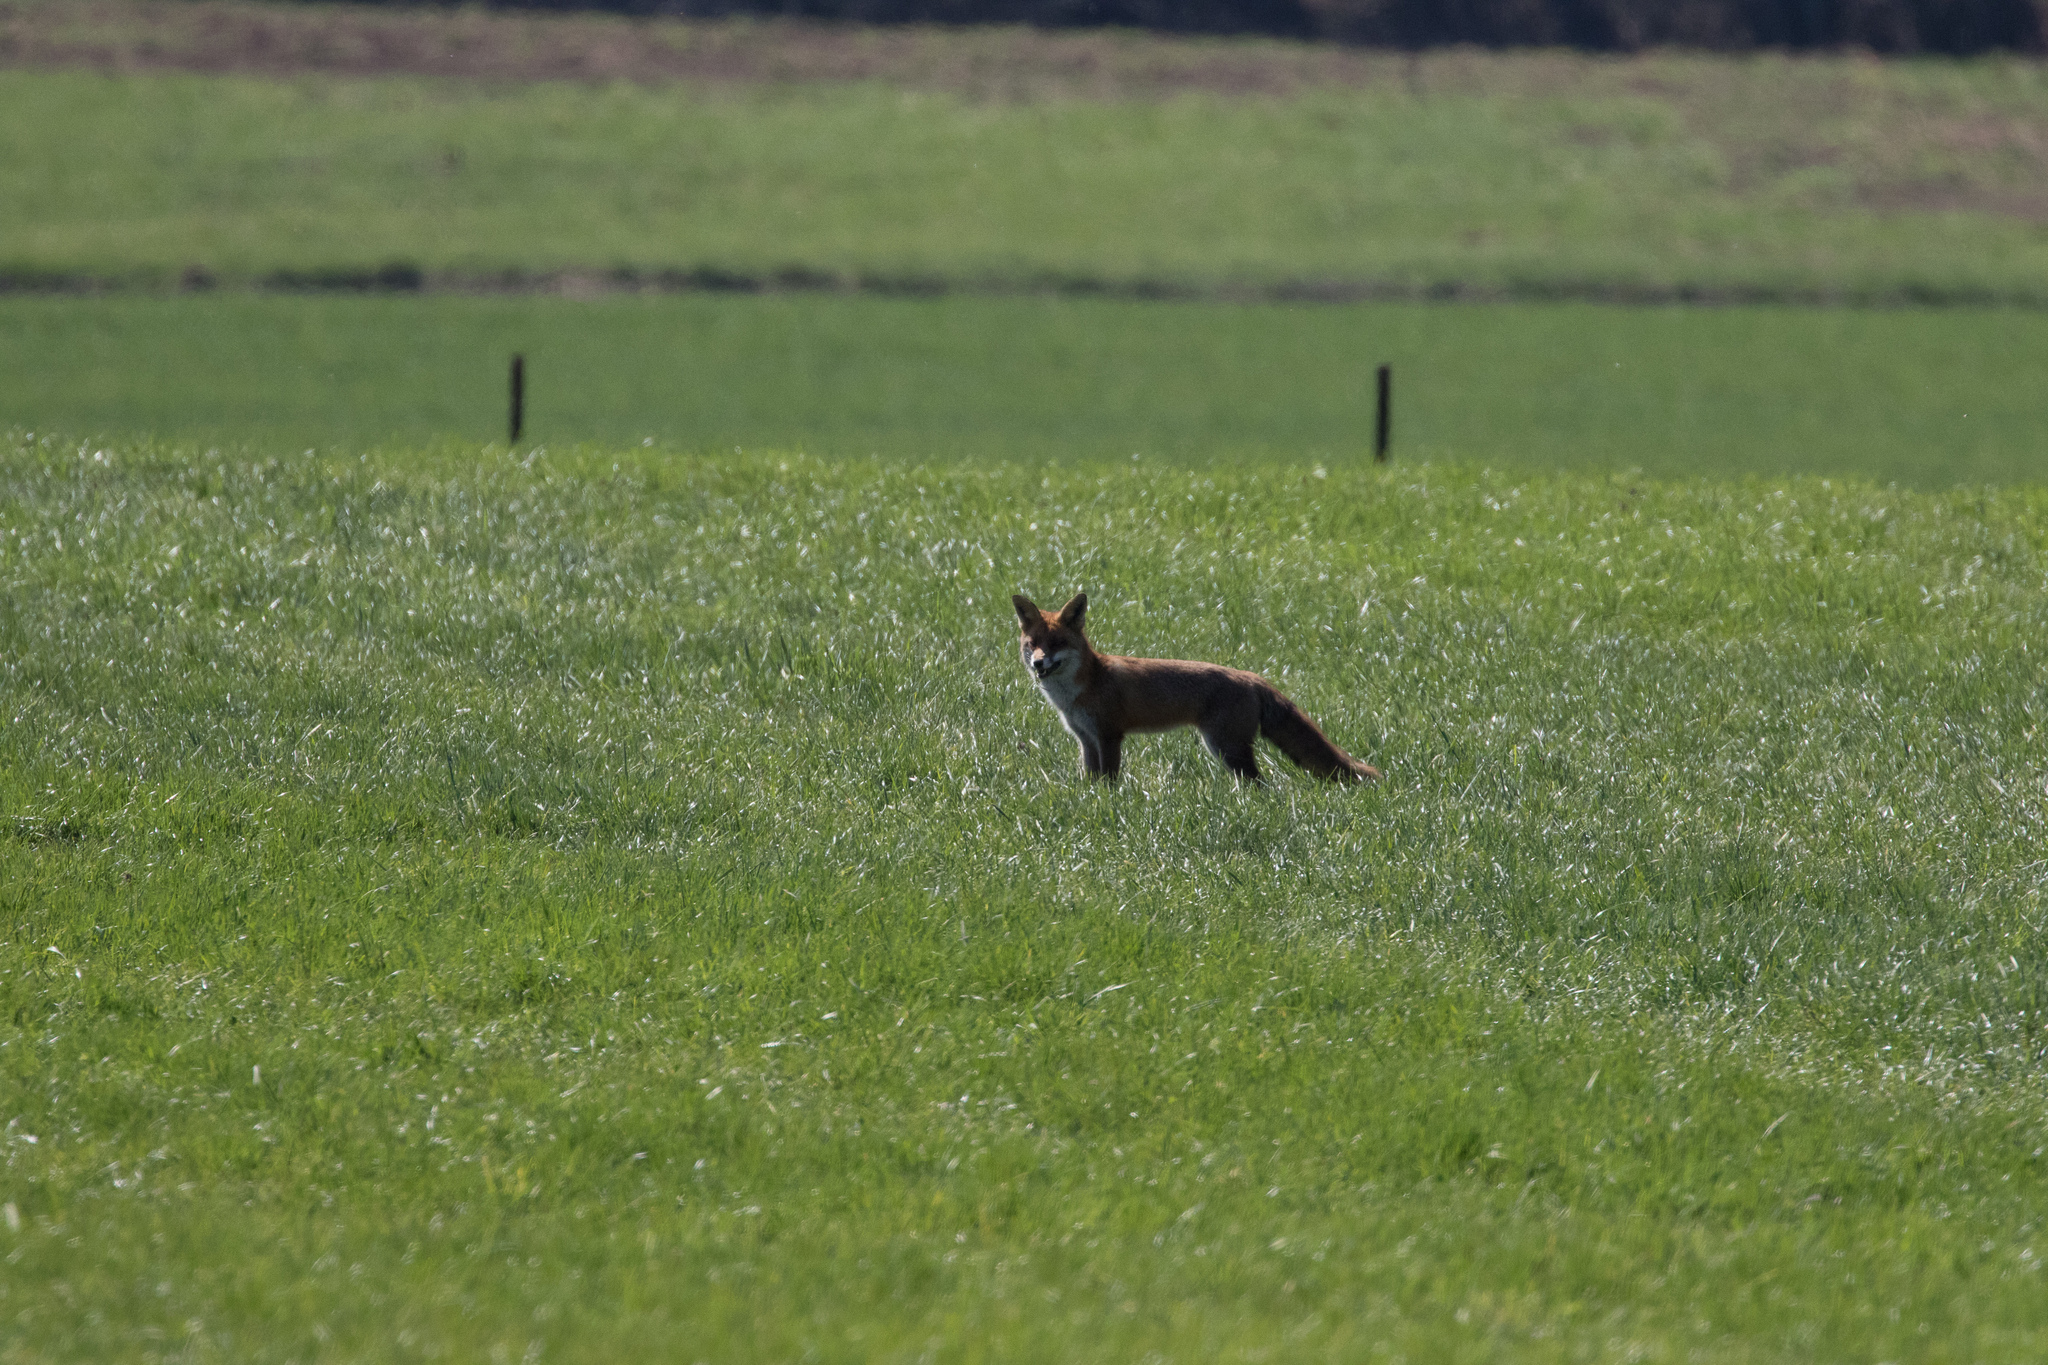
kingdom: Animalia
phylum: Chordata
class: Mammalia
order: Carnivora
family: Canidae
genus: Vulpes
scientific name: Vulpes vulpes
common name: Red fox
